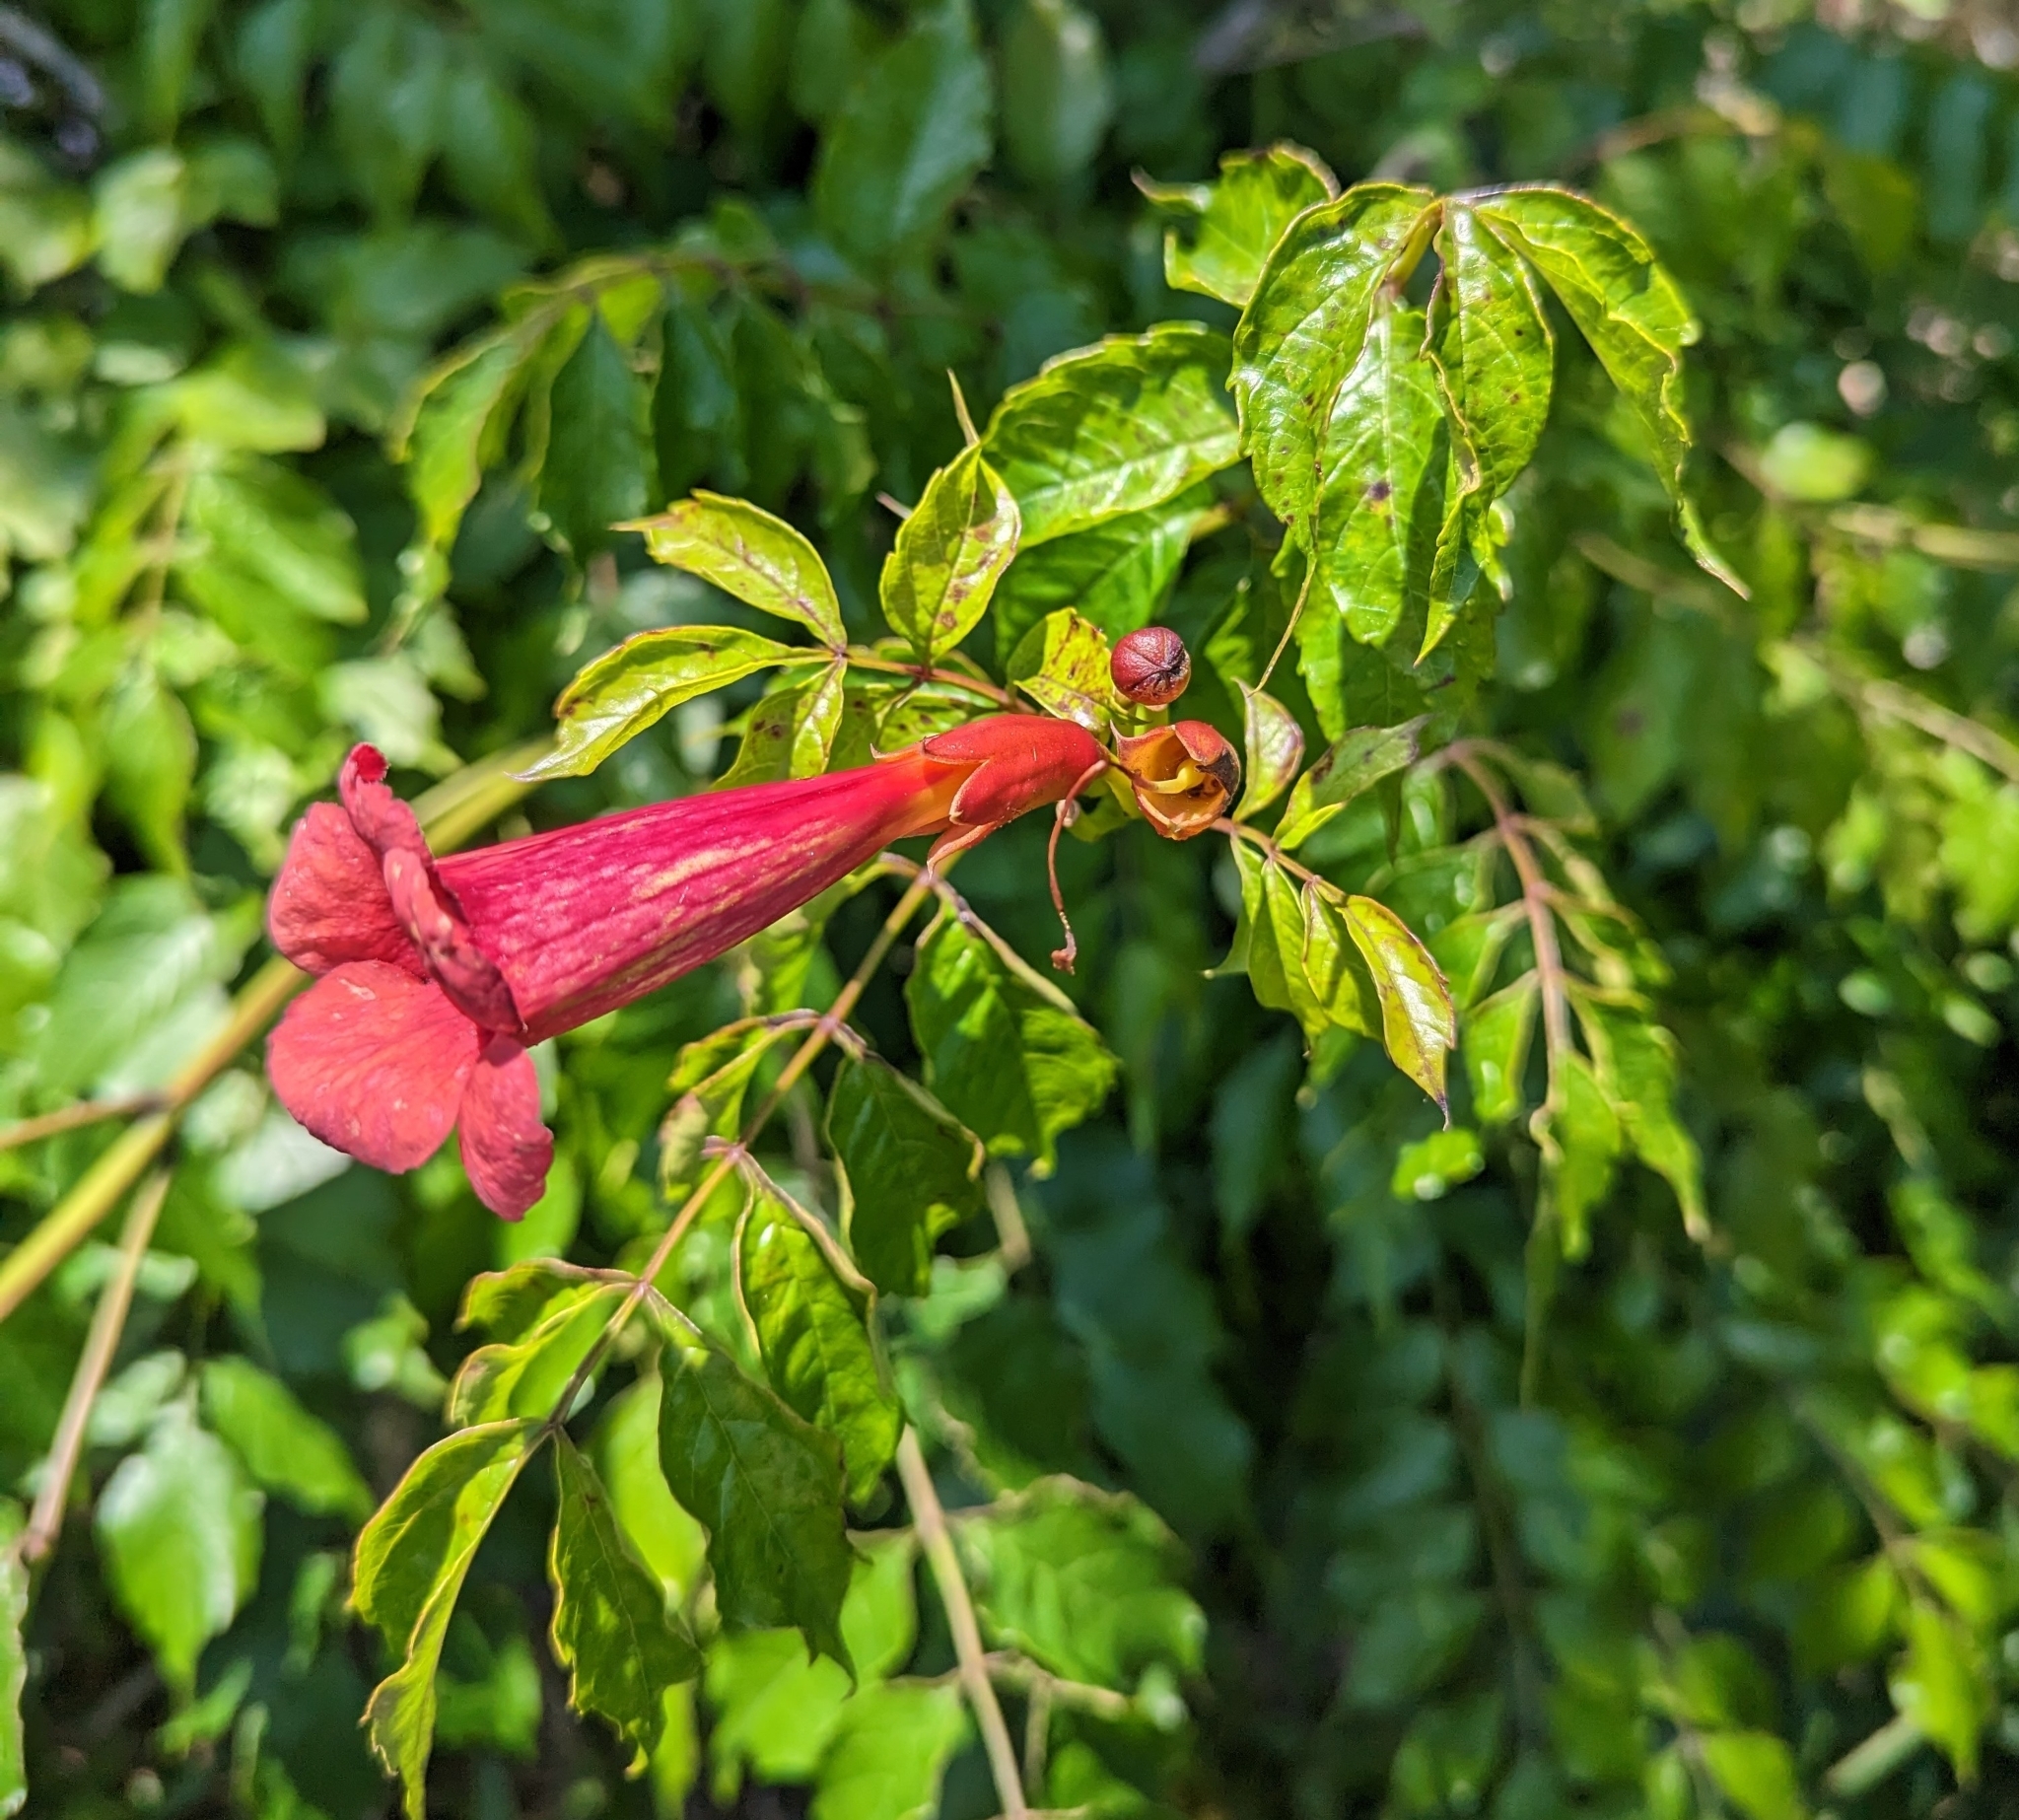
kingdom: Plantae
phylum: Tracheophyta
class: Magnoliopsida
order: Lamiales
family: Bignoniaceae
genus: Campsis
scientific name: Campsis radicans
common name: Trumpet-creeper
